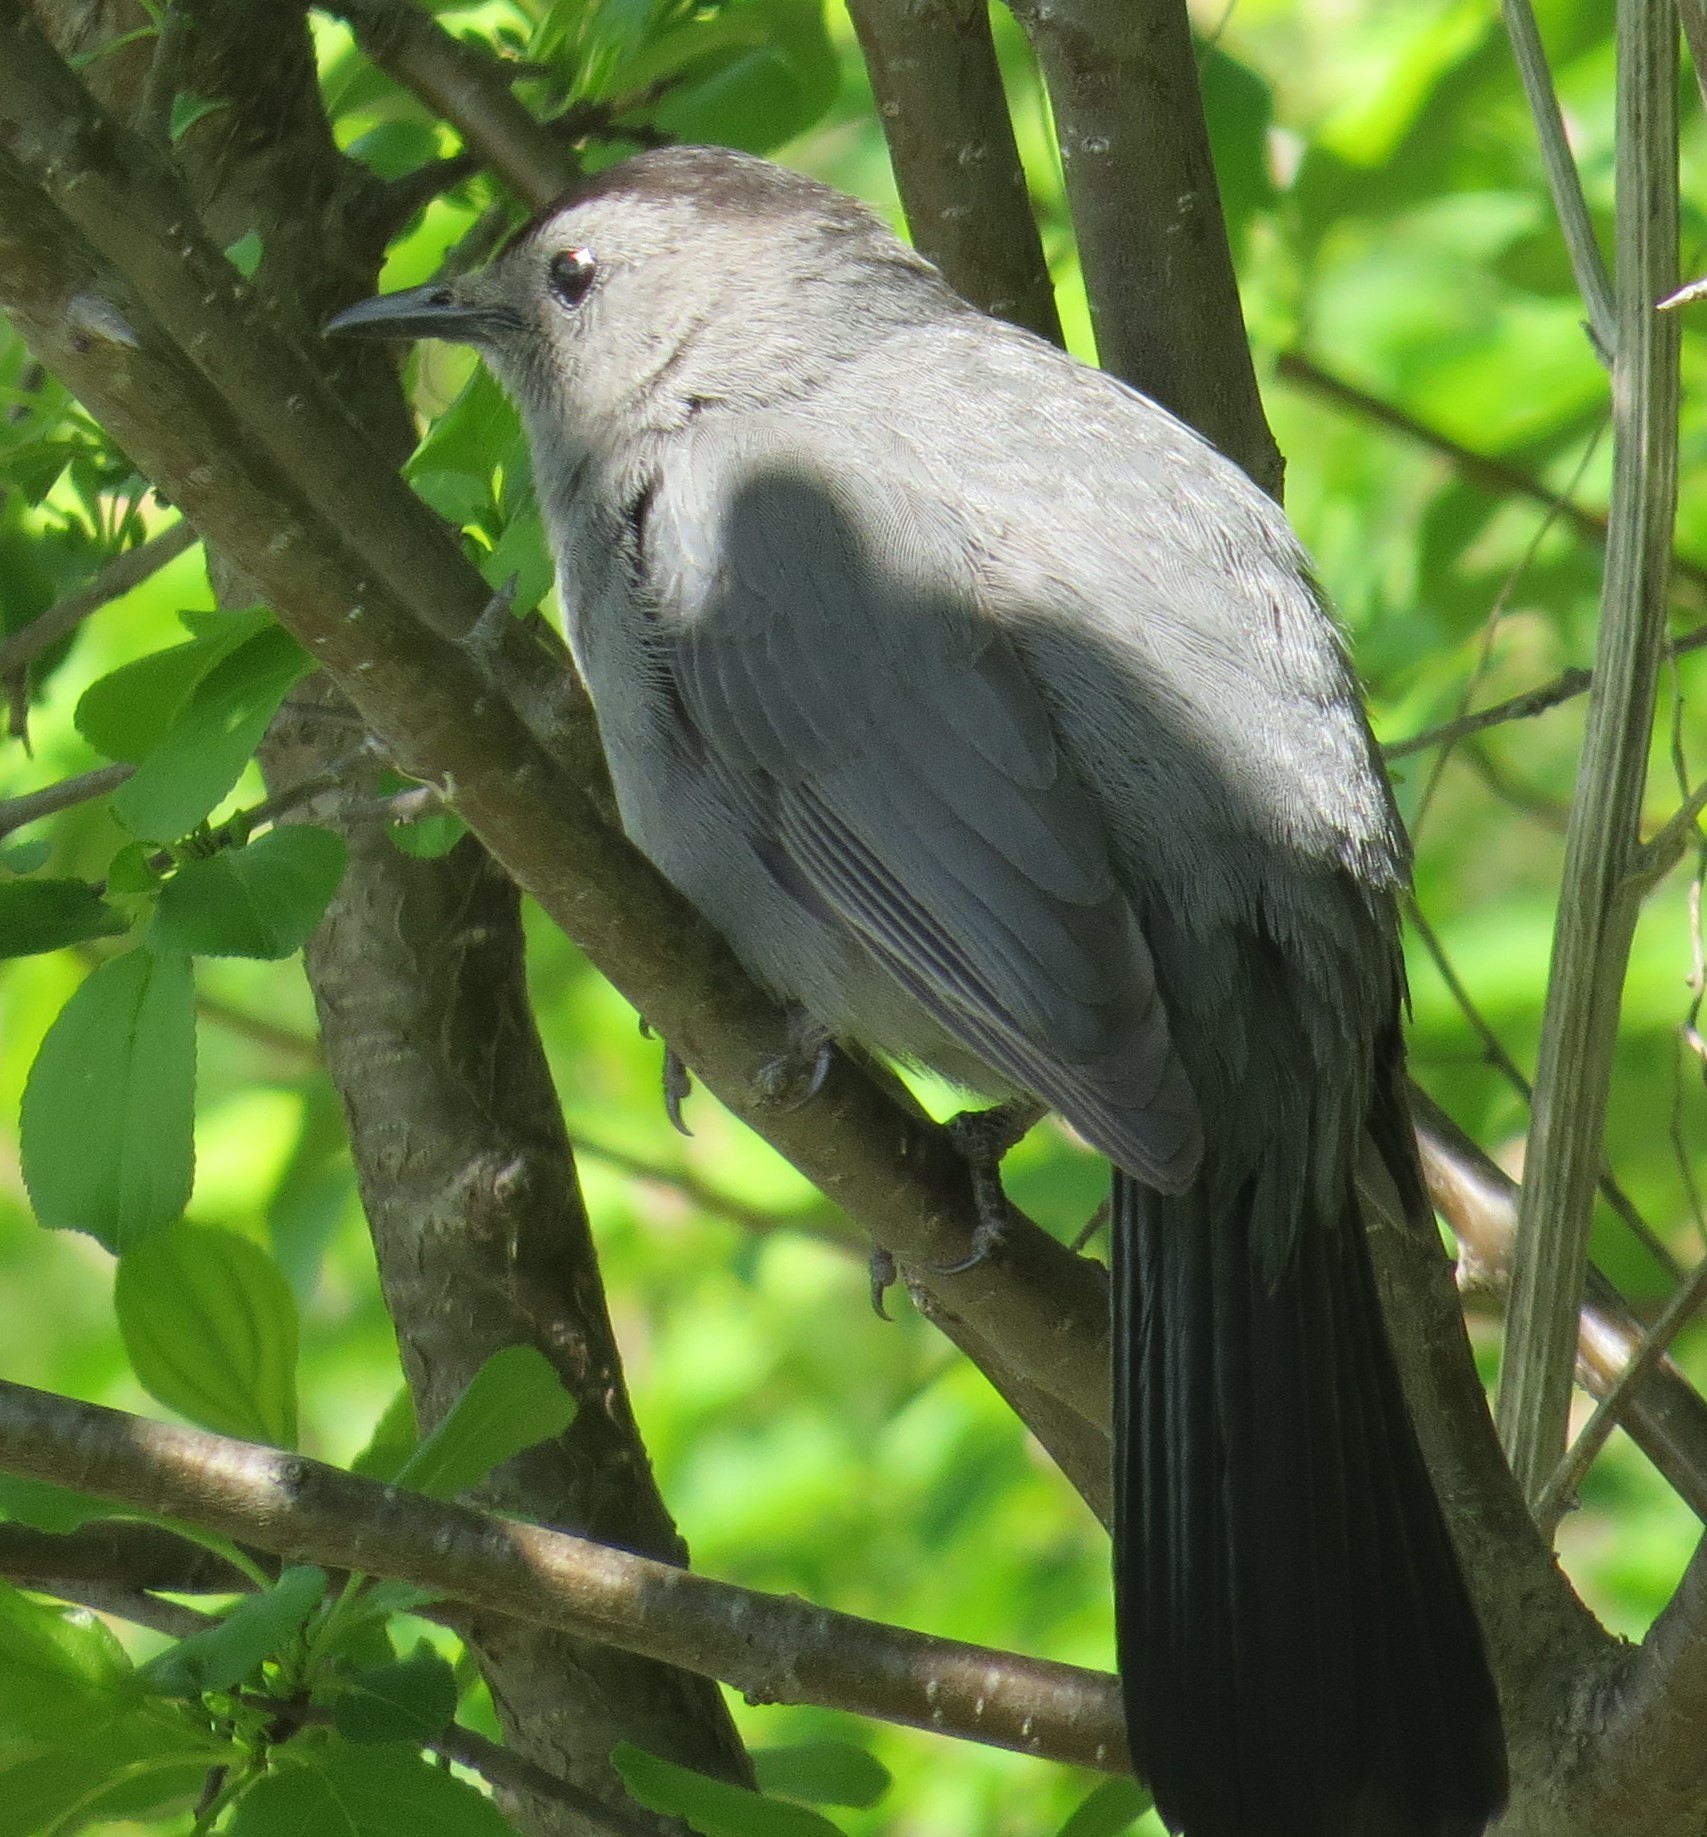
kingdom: Animalia
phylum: Chordata
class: Aves
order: Passeriformes
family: Mimidae
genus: Dumetella
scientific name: Dumetella carolinensis
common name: Gray catbird
